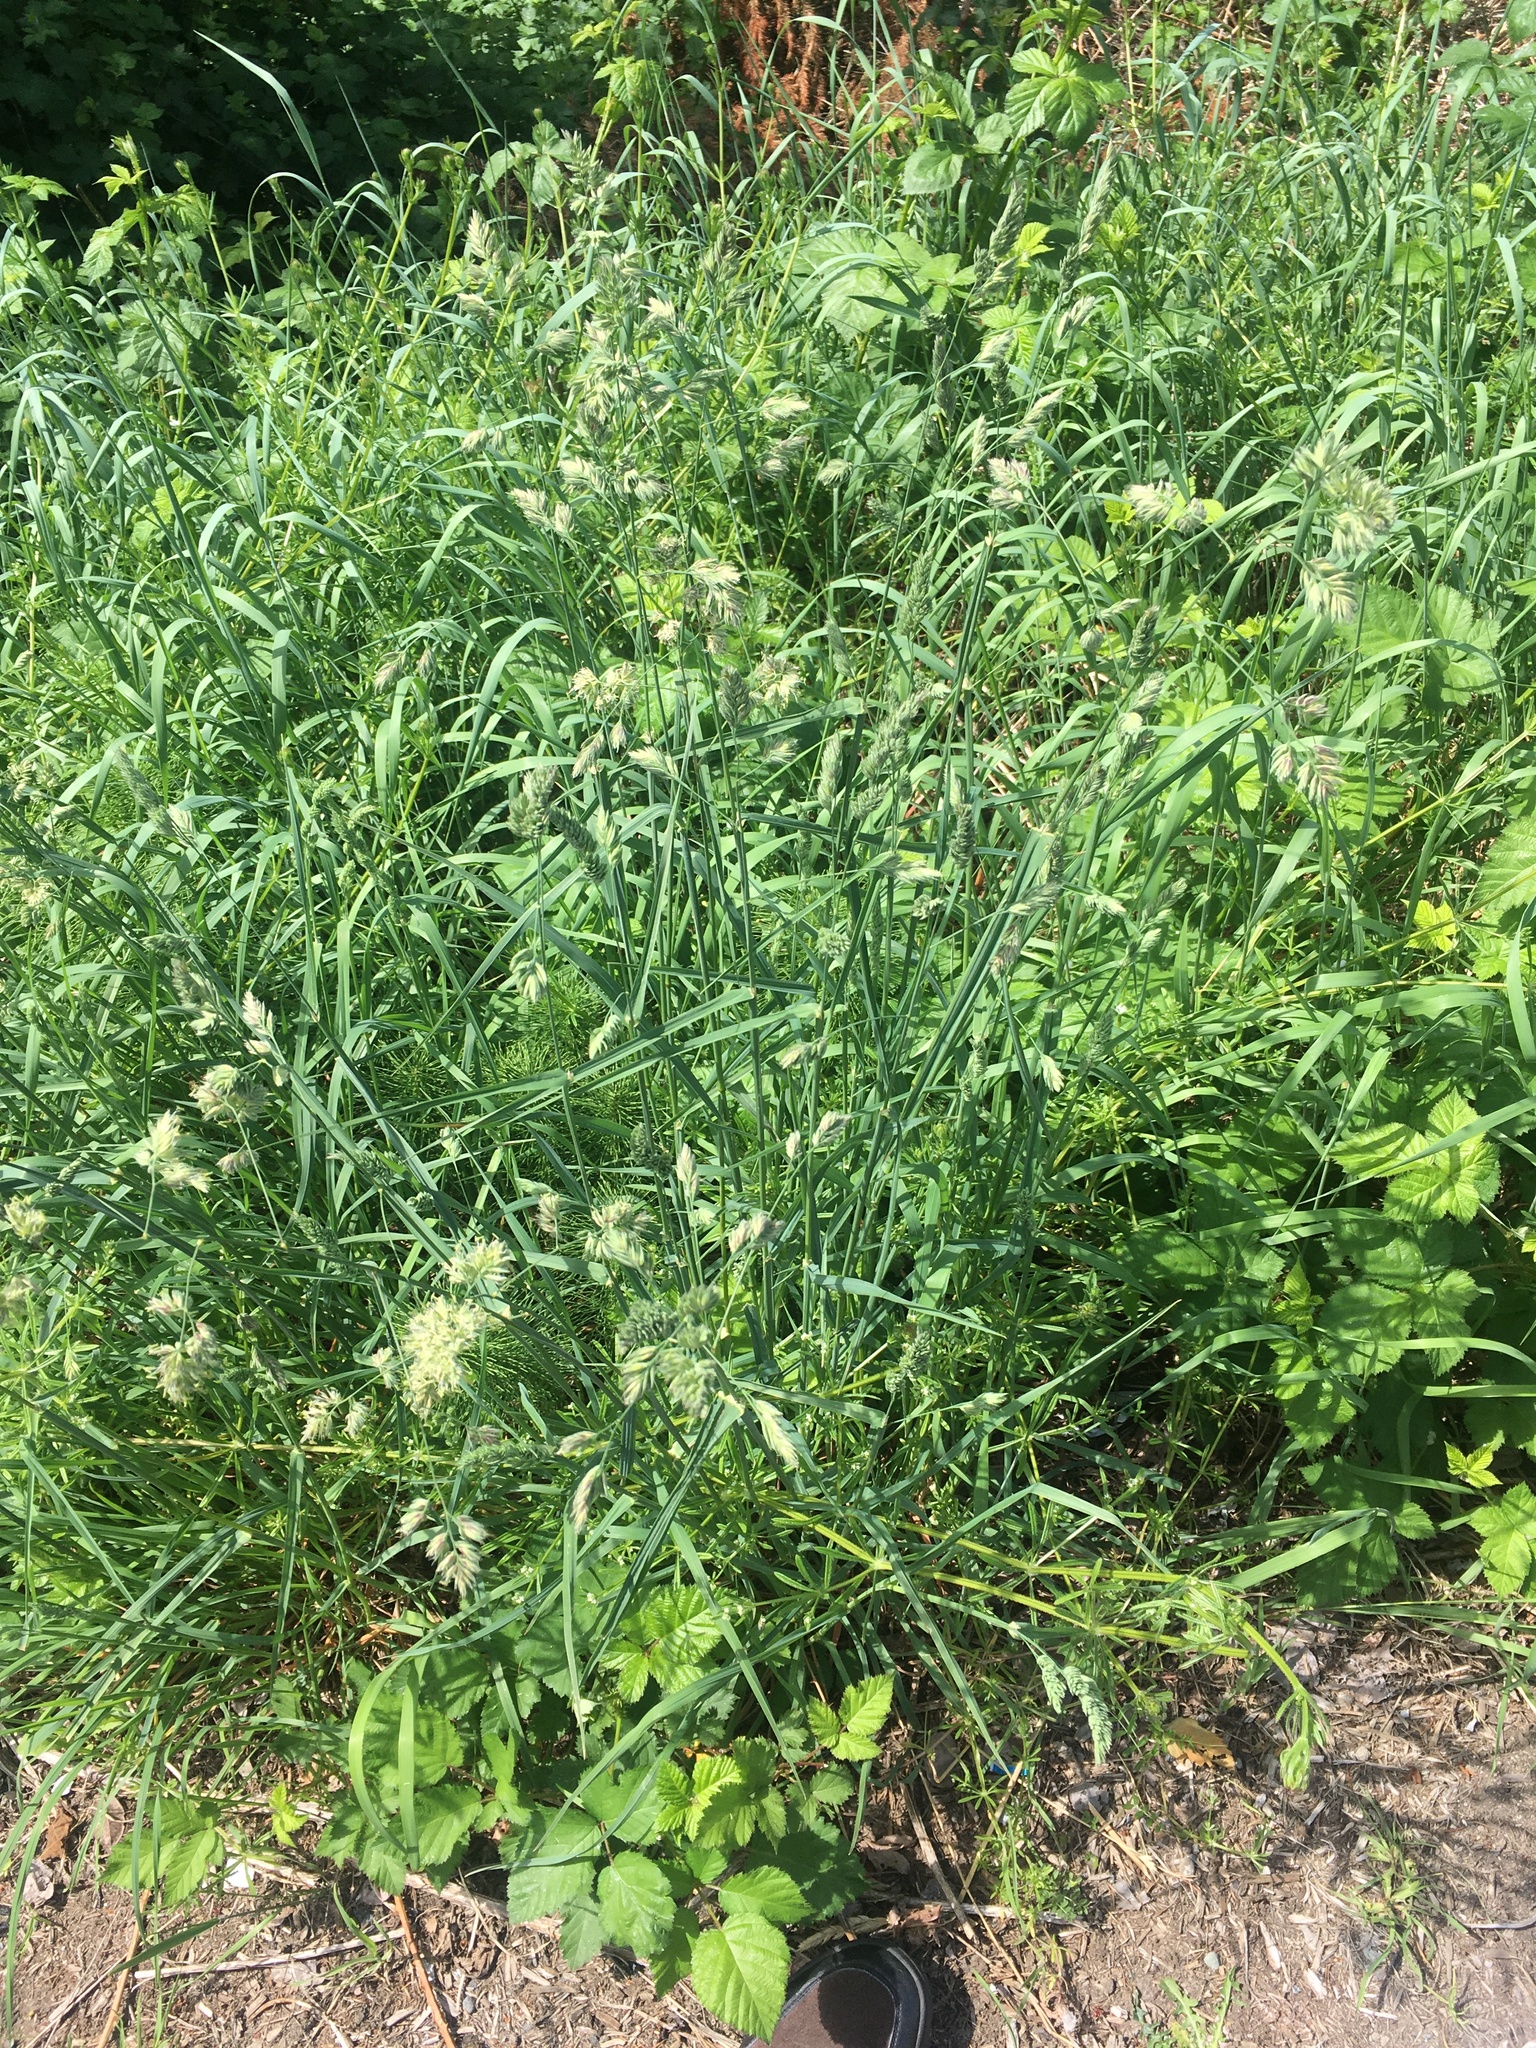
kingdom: Plantae
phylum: Tracheophyta
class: Liliopsida
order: Poales
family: Poaceae
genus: Dactylis
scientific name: Dactylis glomerata
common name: Orchardgrass
